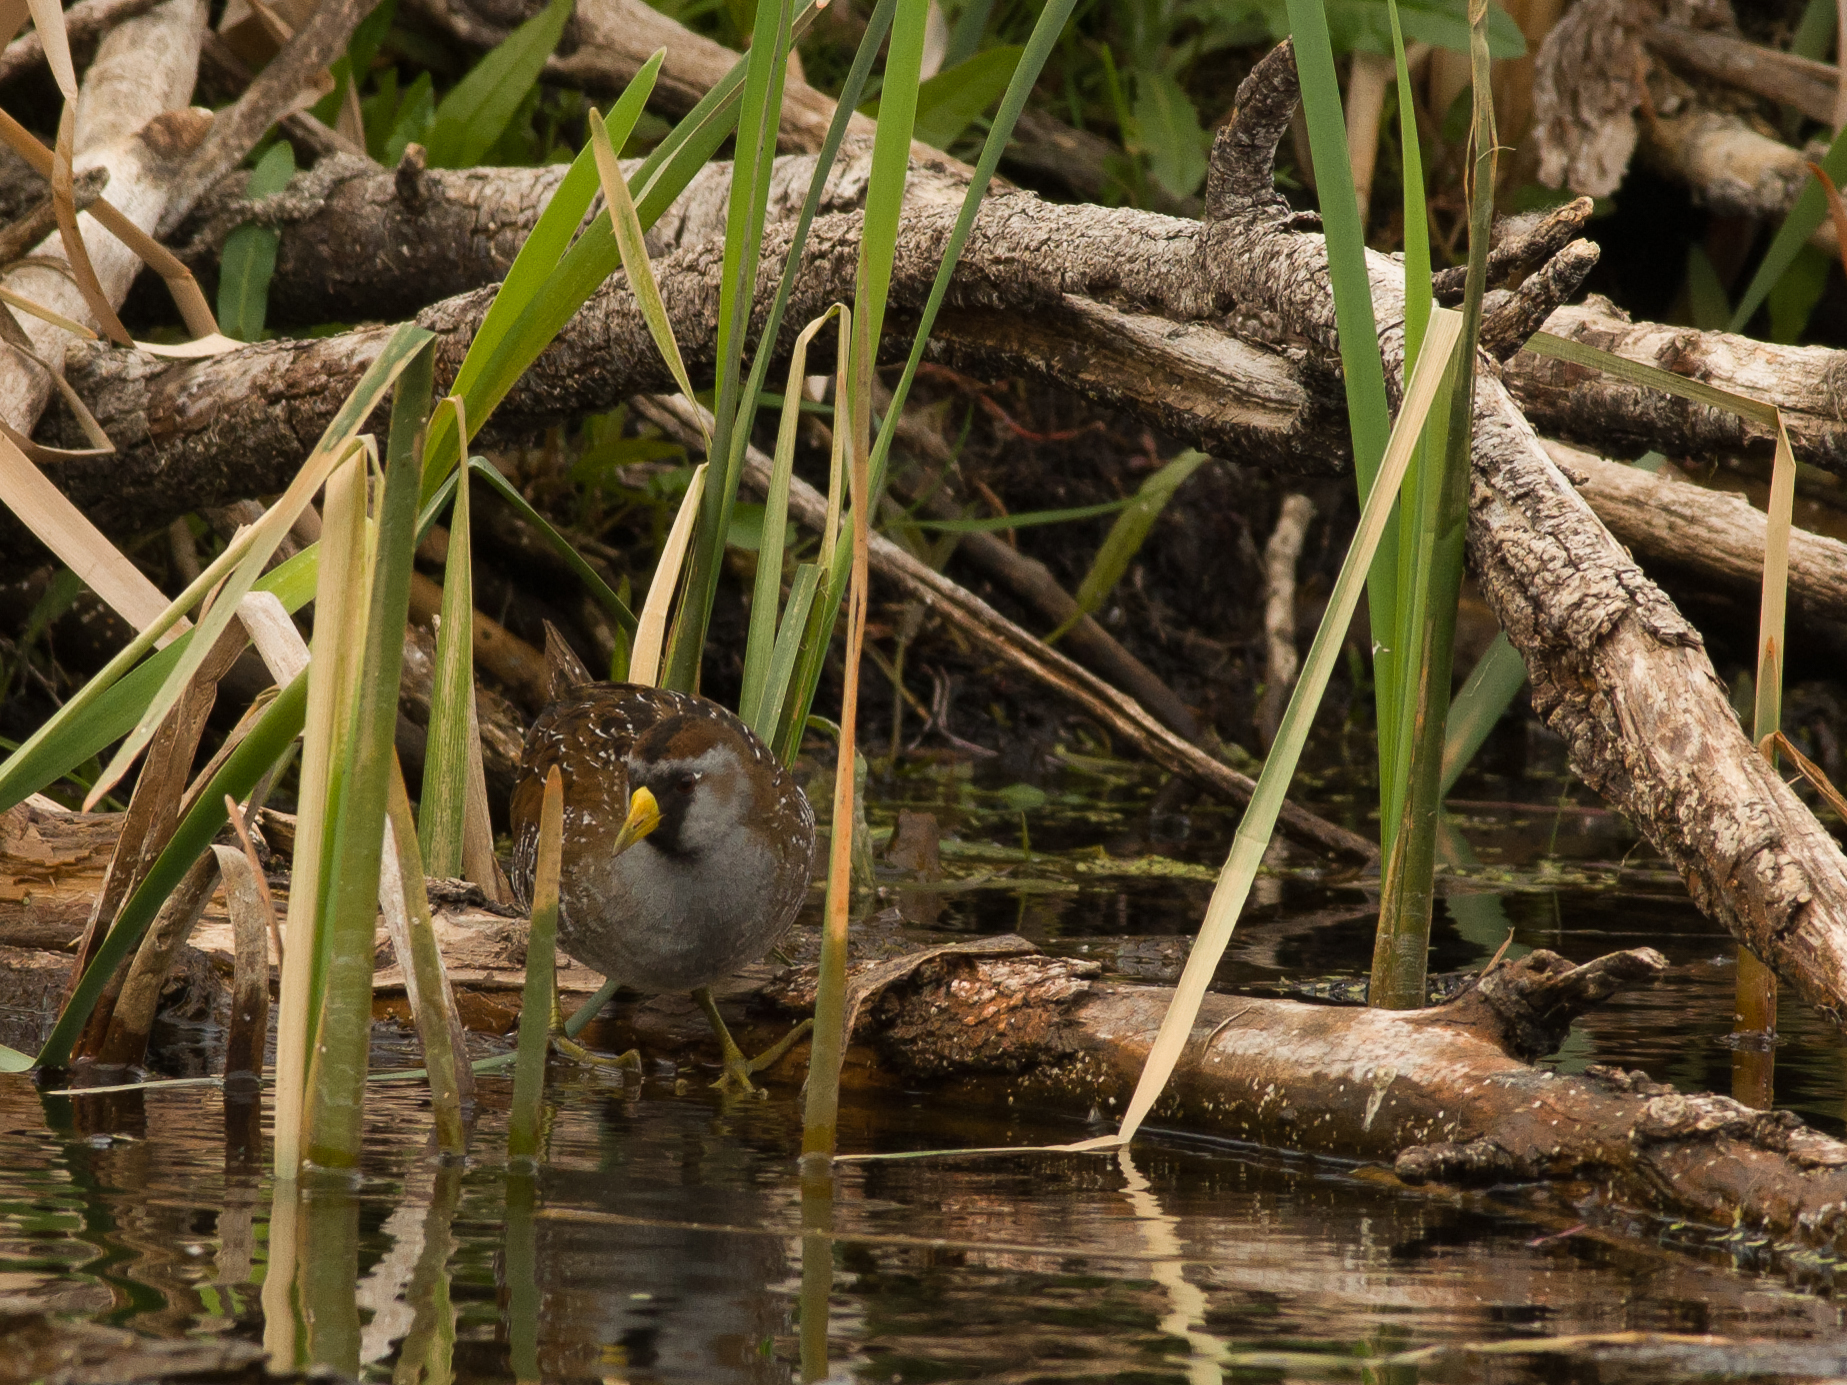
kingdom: Animalia
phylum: Chordata
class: Aves
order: Gruiformes
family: Rallidae
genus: Porzana
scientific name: Porzana carolina
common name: Sora
